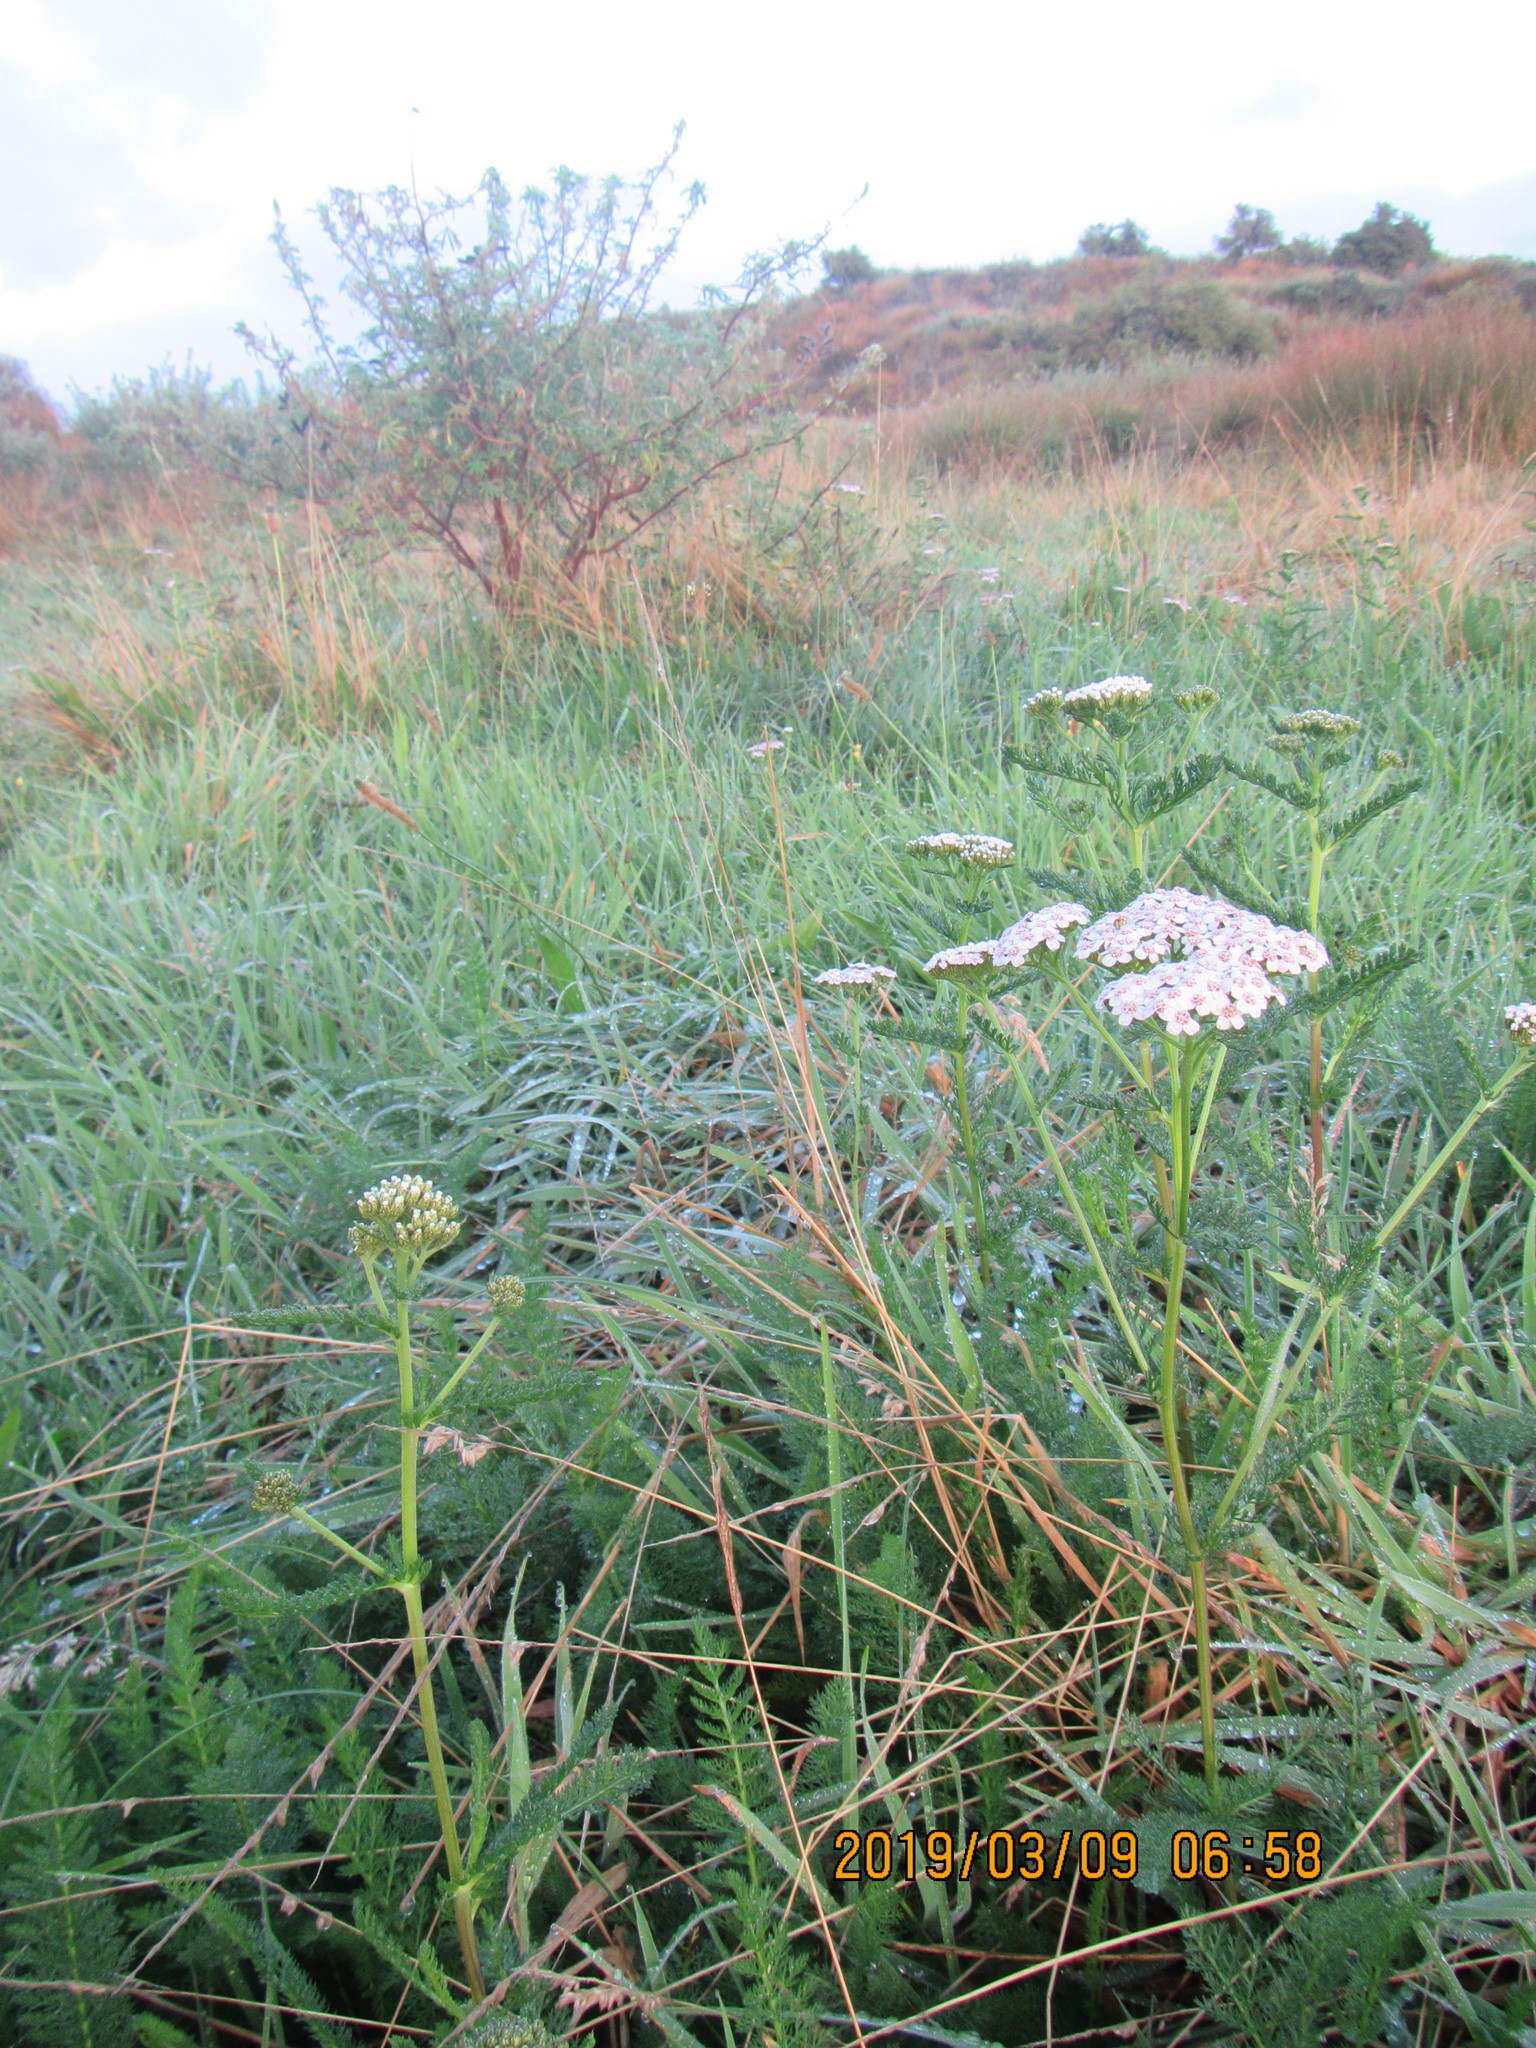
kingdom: Plantae
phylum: Tracheophyta
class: Magnoliopsida
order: Asterales
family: Asteraceae
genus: Achillea
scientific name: Achillea millefolium
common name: Yarrow
